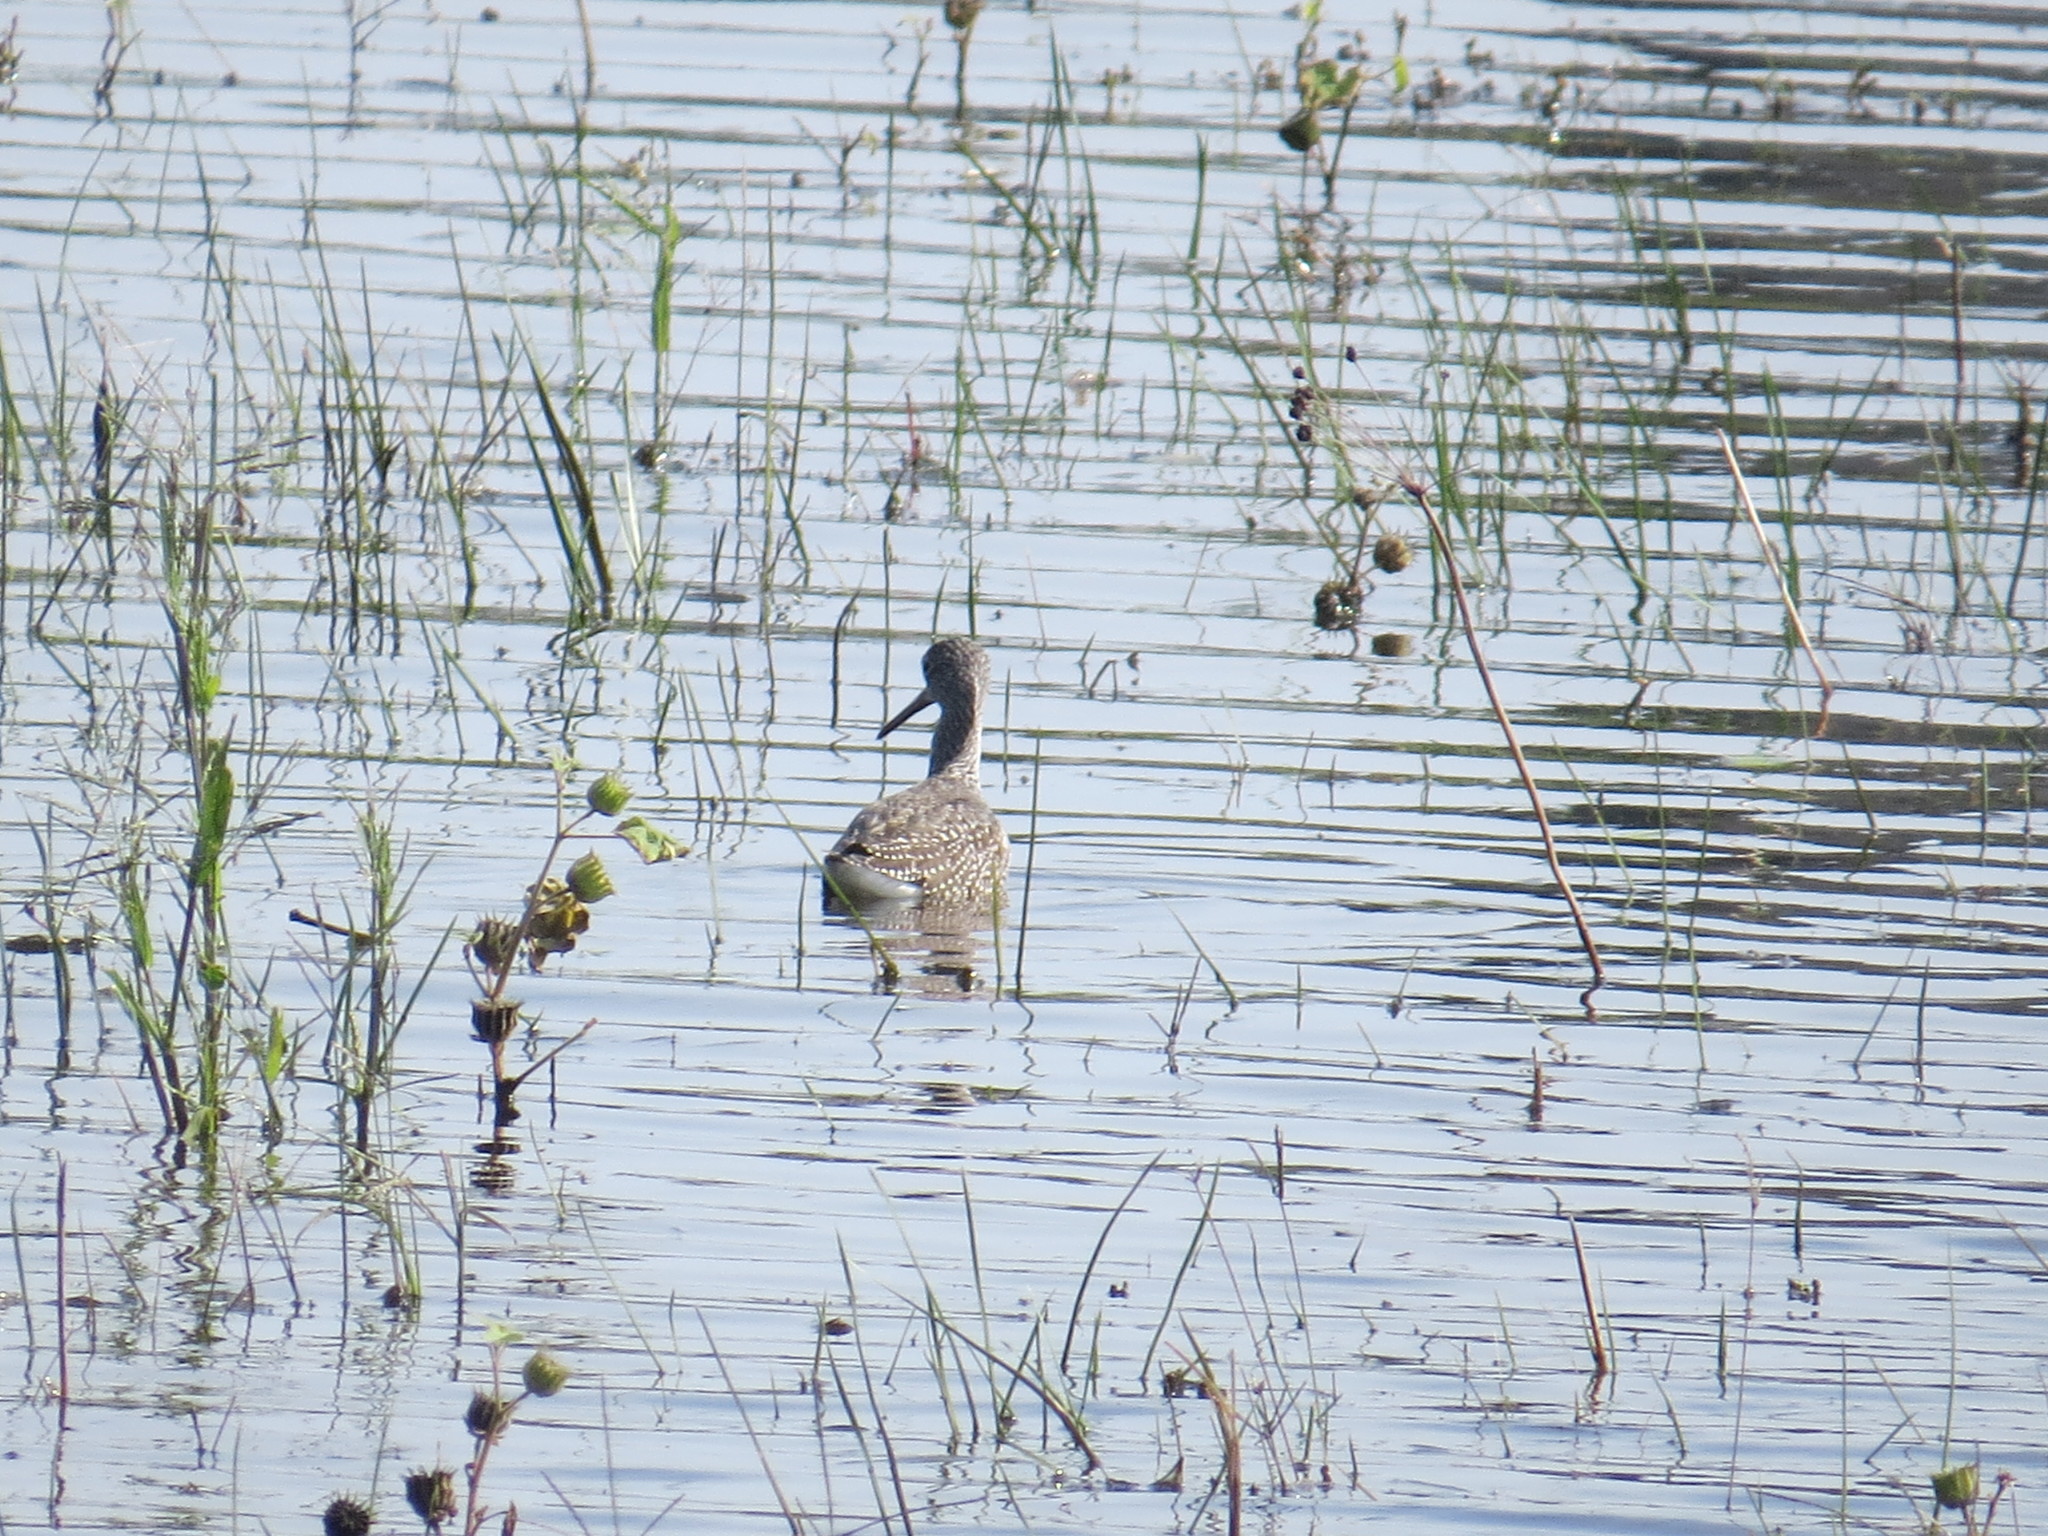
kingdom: Animalia
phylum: Chordata
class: Aves
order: Charadriiformes
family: Scolopacidae
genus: Tringa
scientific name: Tringa melanoleuca
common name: Greater yellowlegs
